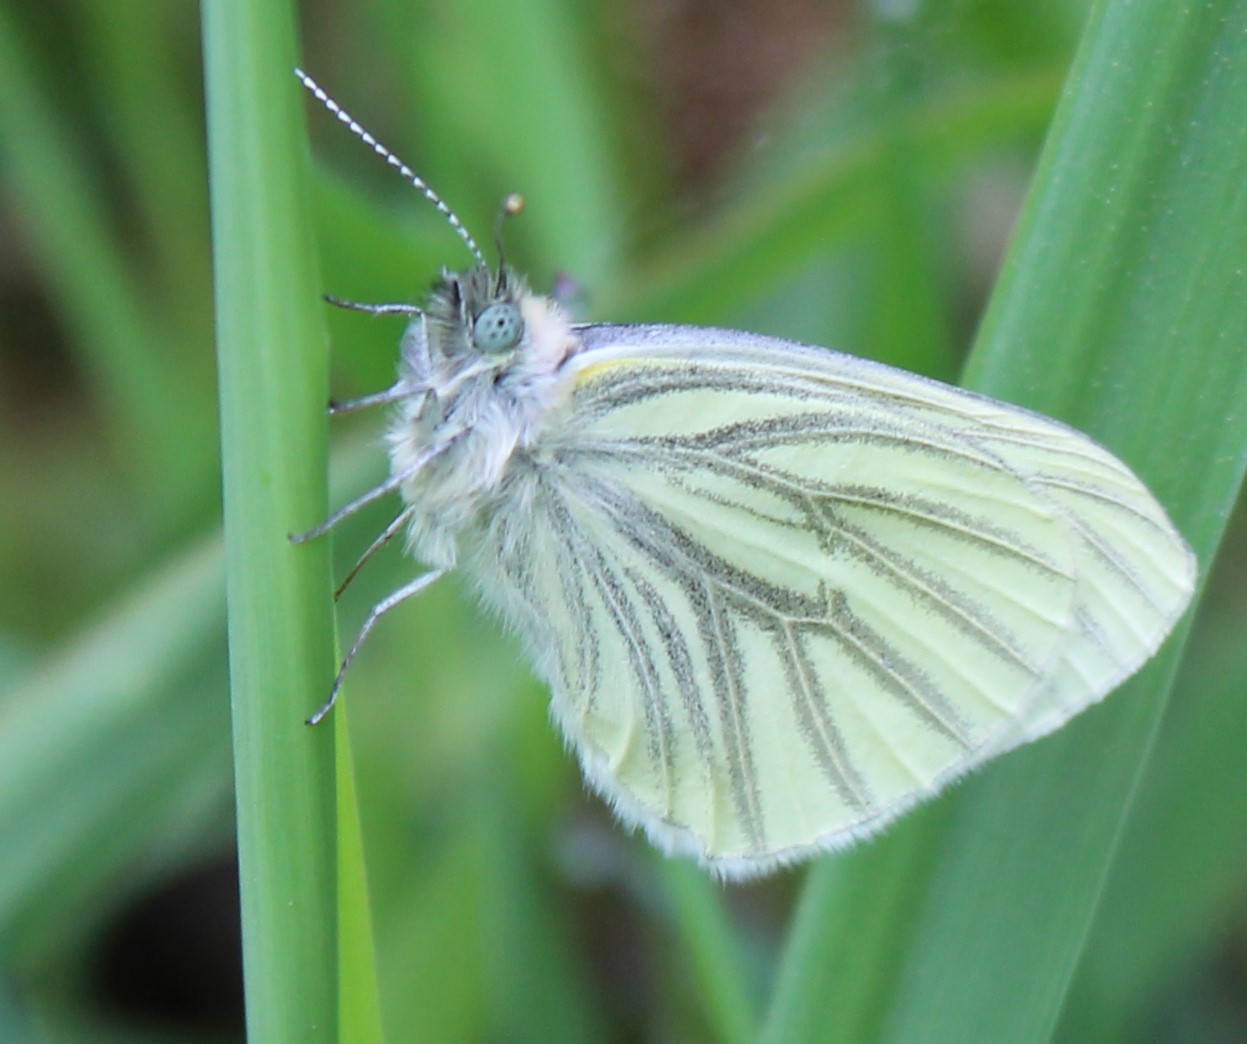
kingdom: Animalia
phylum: Arthropoda
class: Insecta
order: Lepidoptera
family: Pieridae
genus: Pieris
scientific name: Pieris marginalis
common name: Margined white
